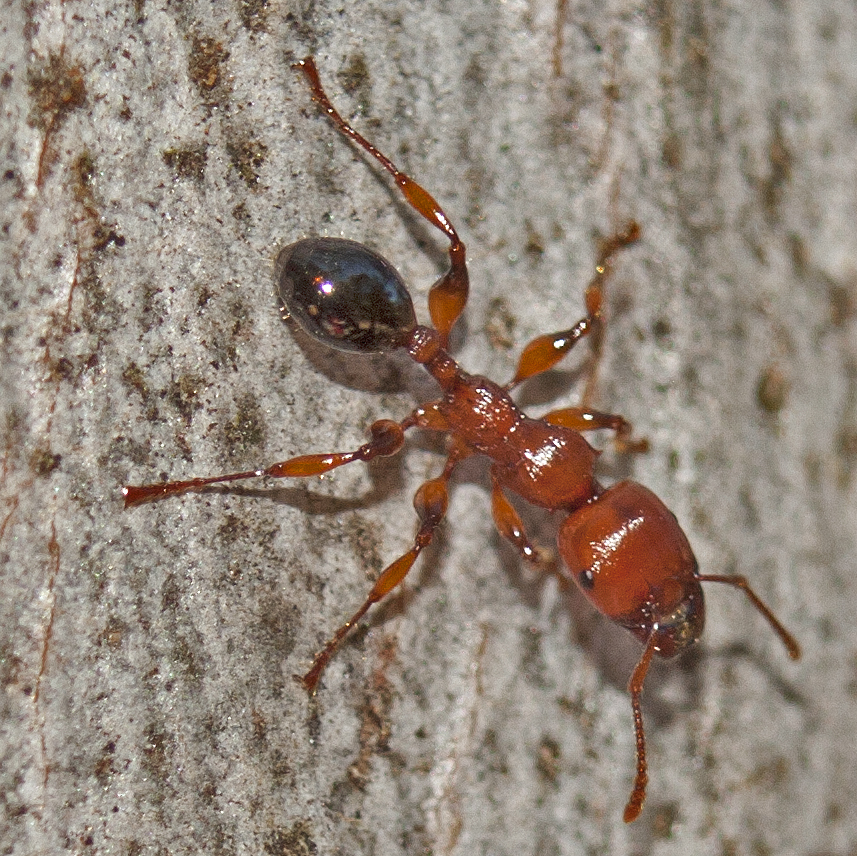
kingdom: Animalia
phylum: Arthropoda
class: Insecta
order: Hymenoptera
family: Formicidae
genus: Podomyrma
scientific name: Podomyrma gratiosa
